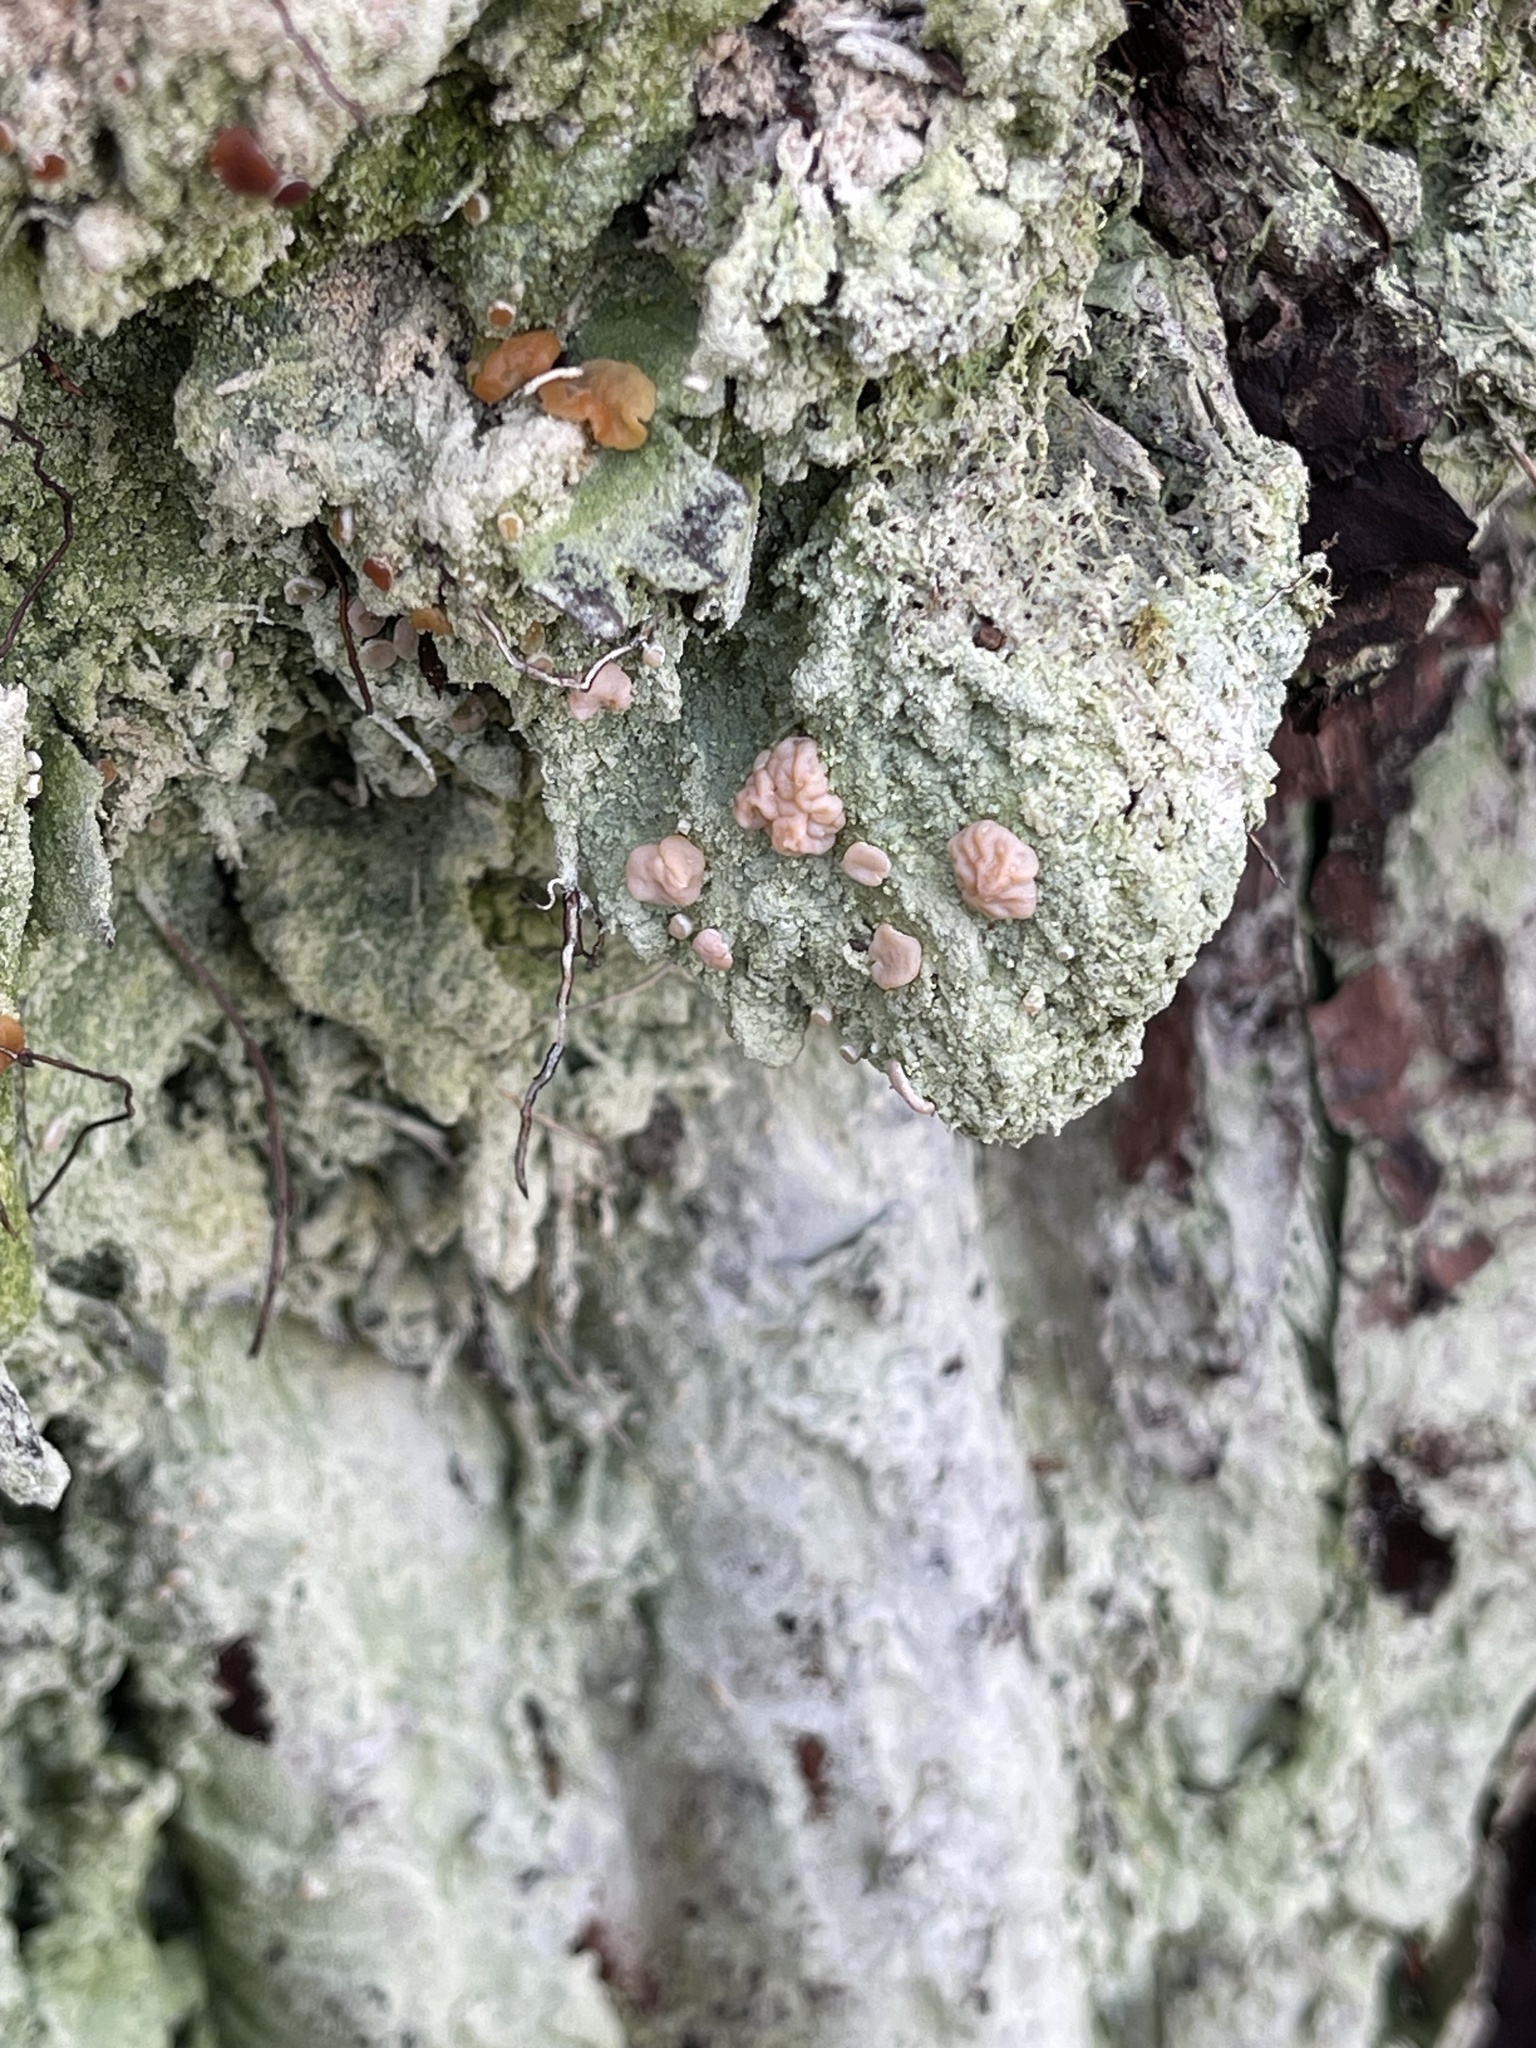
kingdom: Fungi
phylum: Ascomycota
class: Lecanoromycetes
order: Pertusariales
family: Icmadophilaceae
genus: Icmadophila
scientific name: Icmadophila ericetorum
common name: Candy lichen
